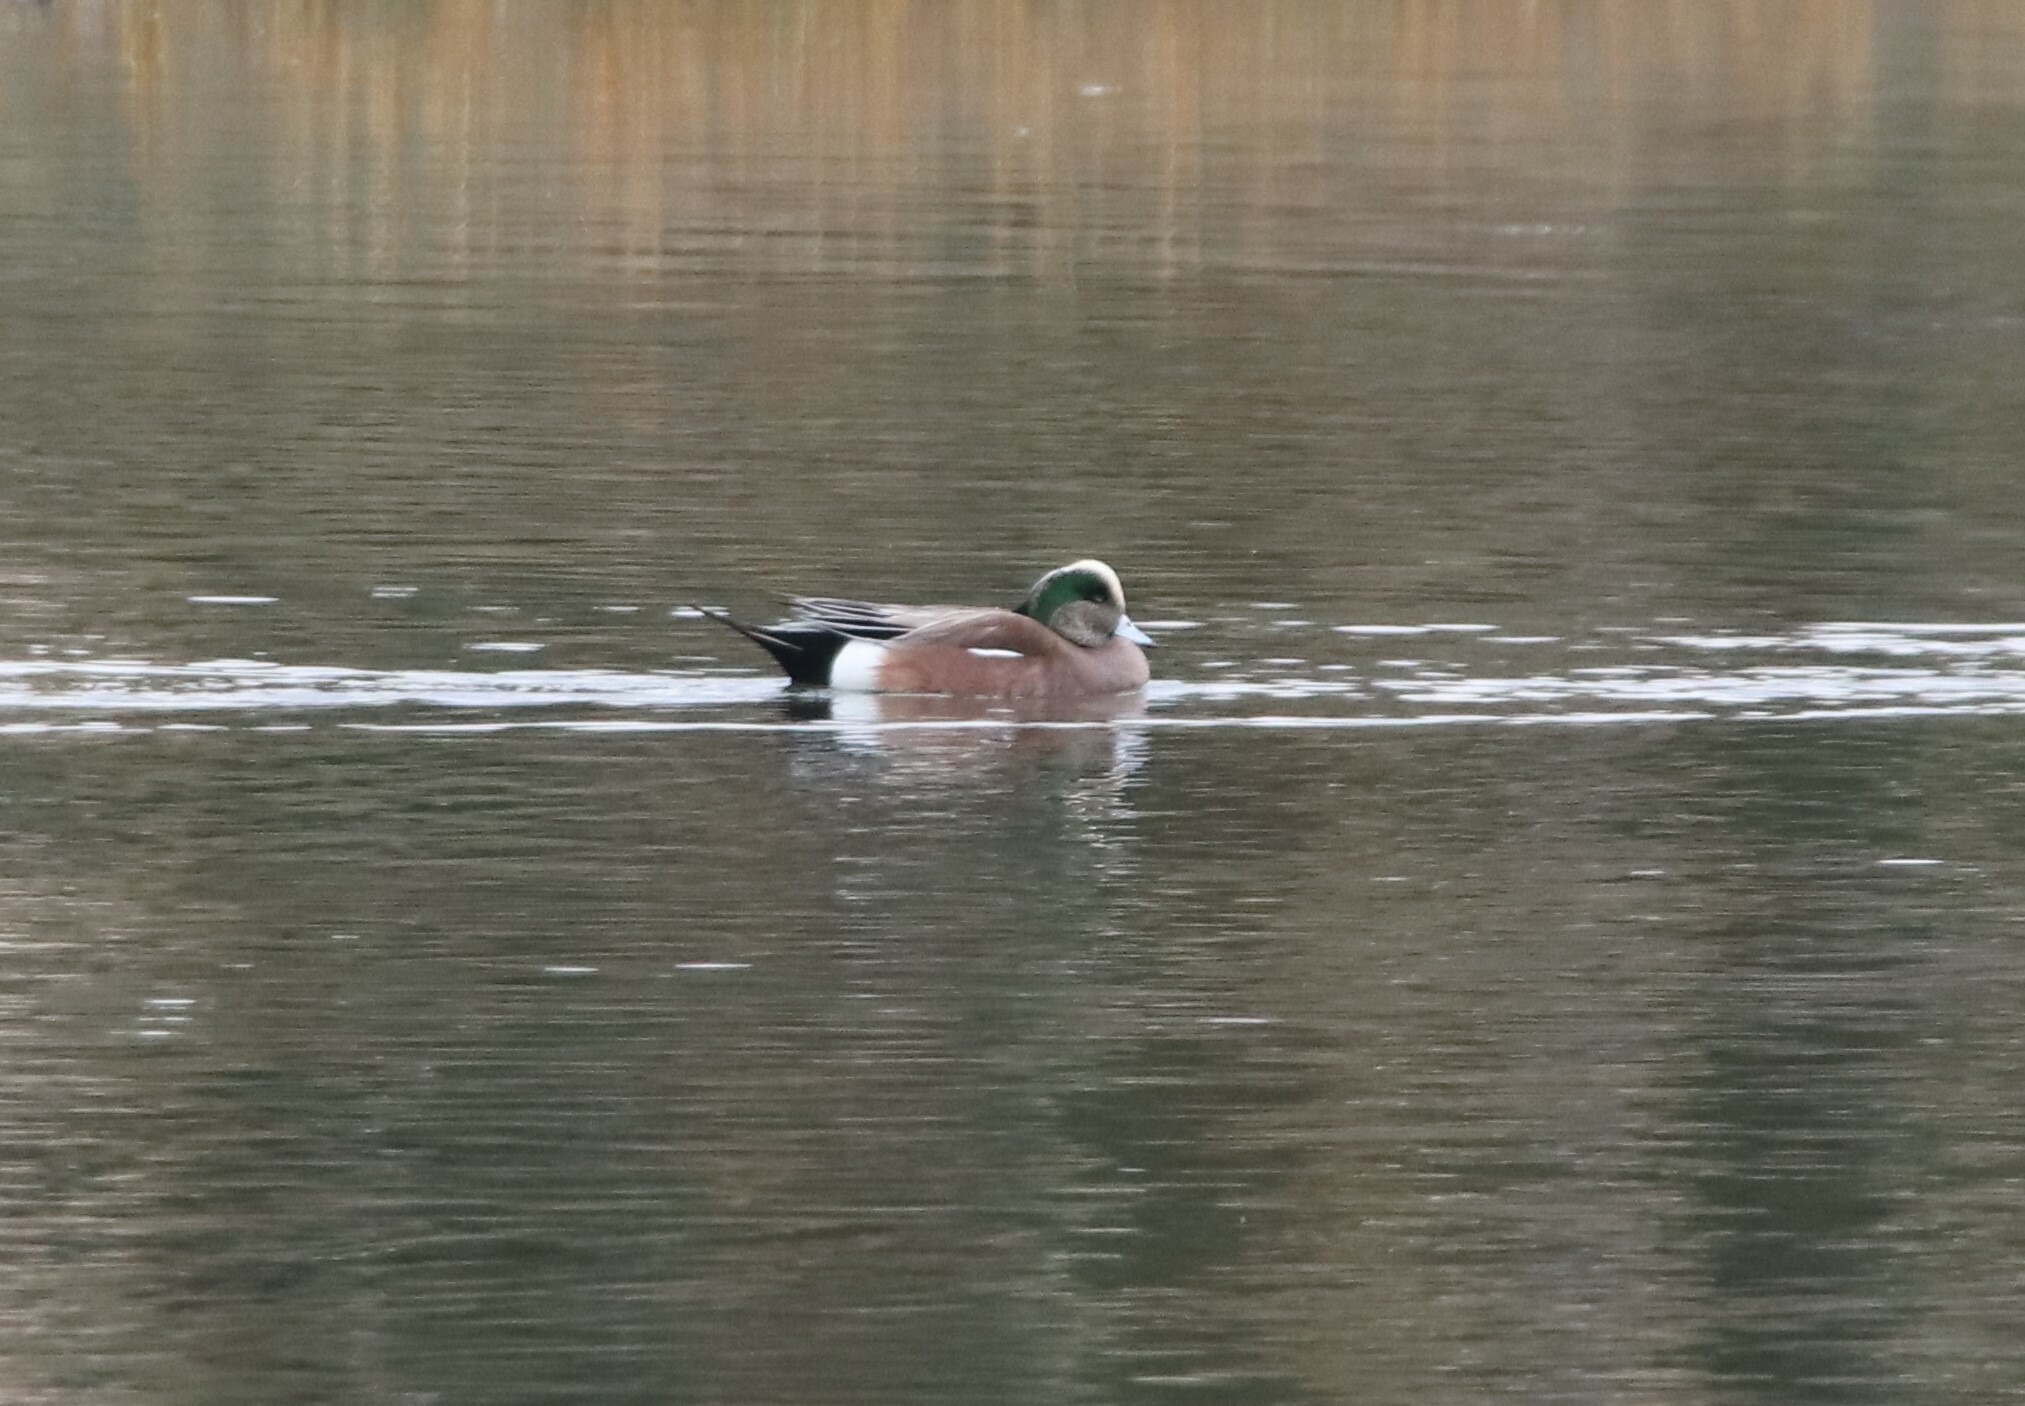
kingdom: Animalia
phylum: Chordata
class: Aves
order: Anseriformes
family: Anatidae
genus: Mareca
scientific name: Mareca americana
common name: American wigeon
